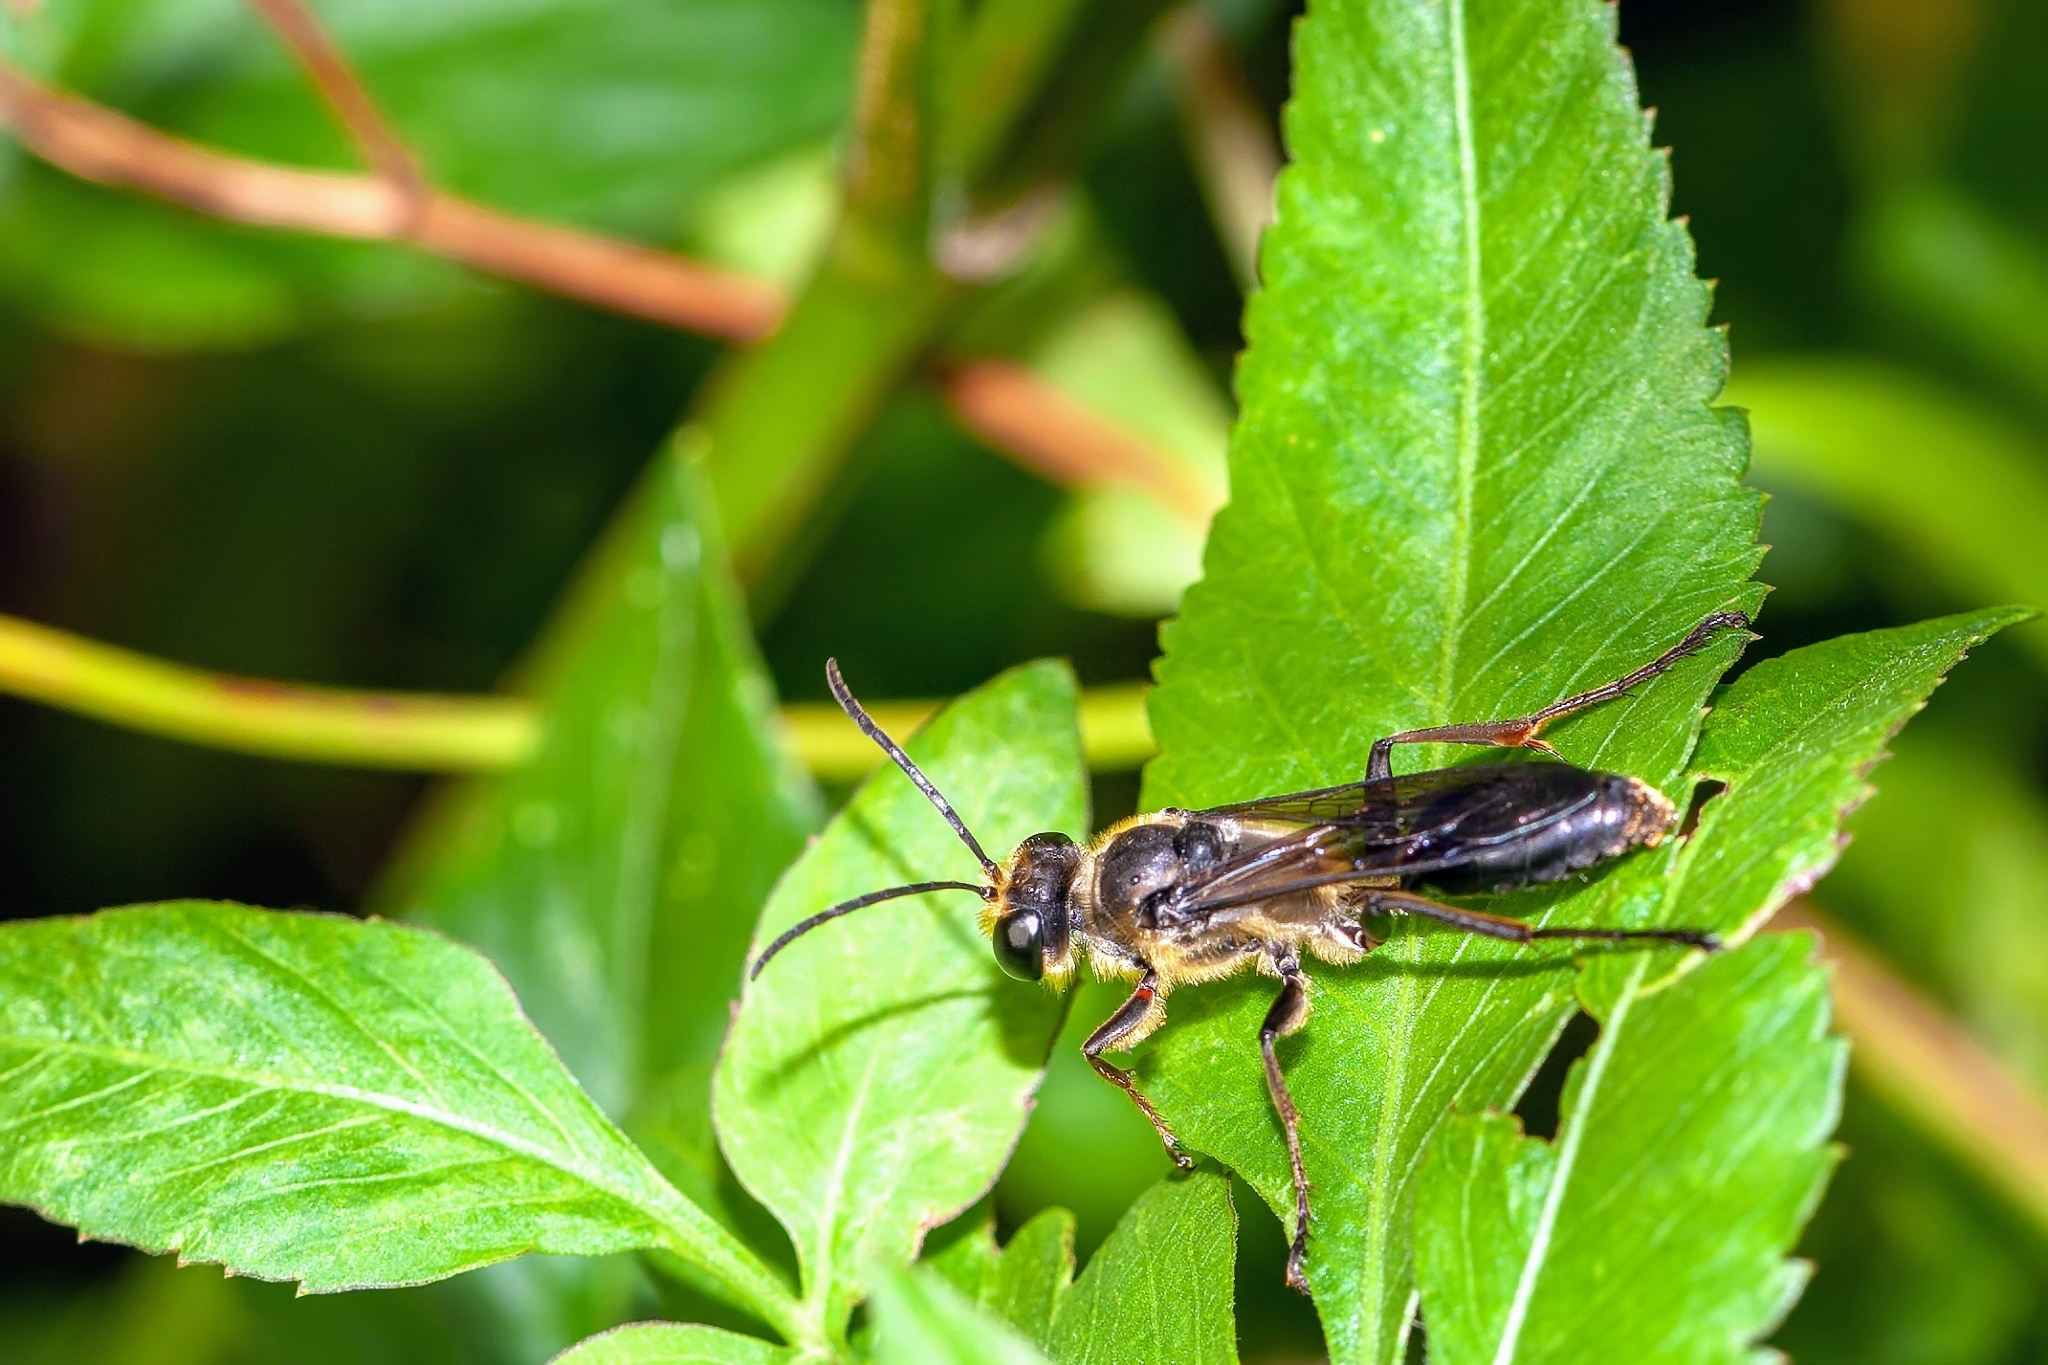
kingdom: Animalia
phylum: Arthropoda
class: Insecta
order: Hymenoptera
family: Sphecidae
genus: Sphex
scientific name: Sphex dorsalis
